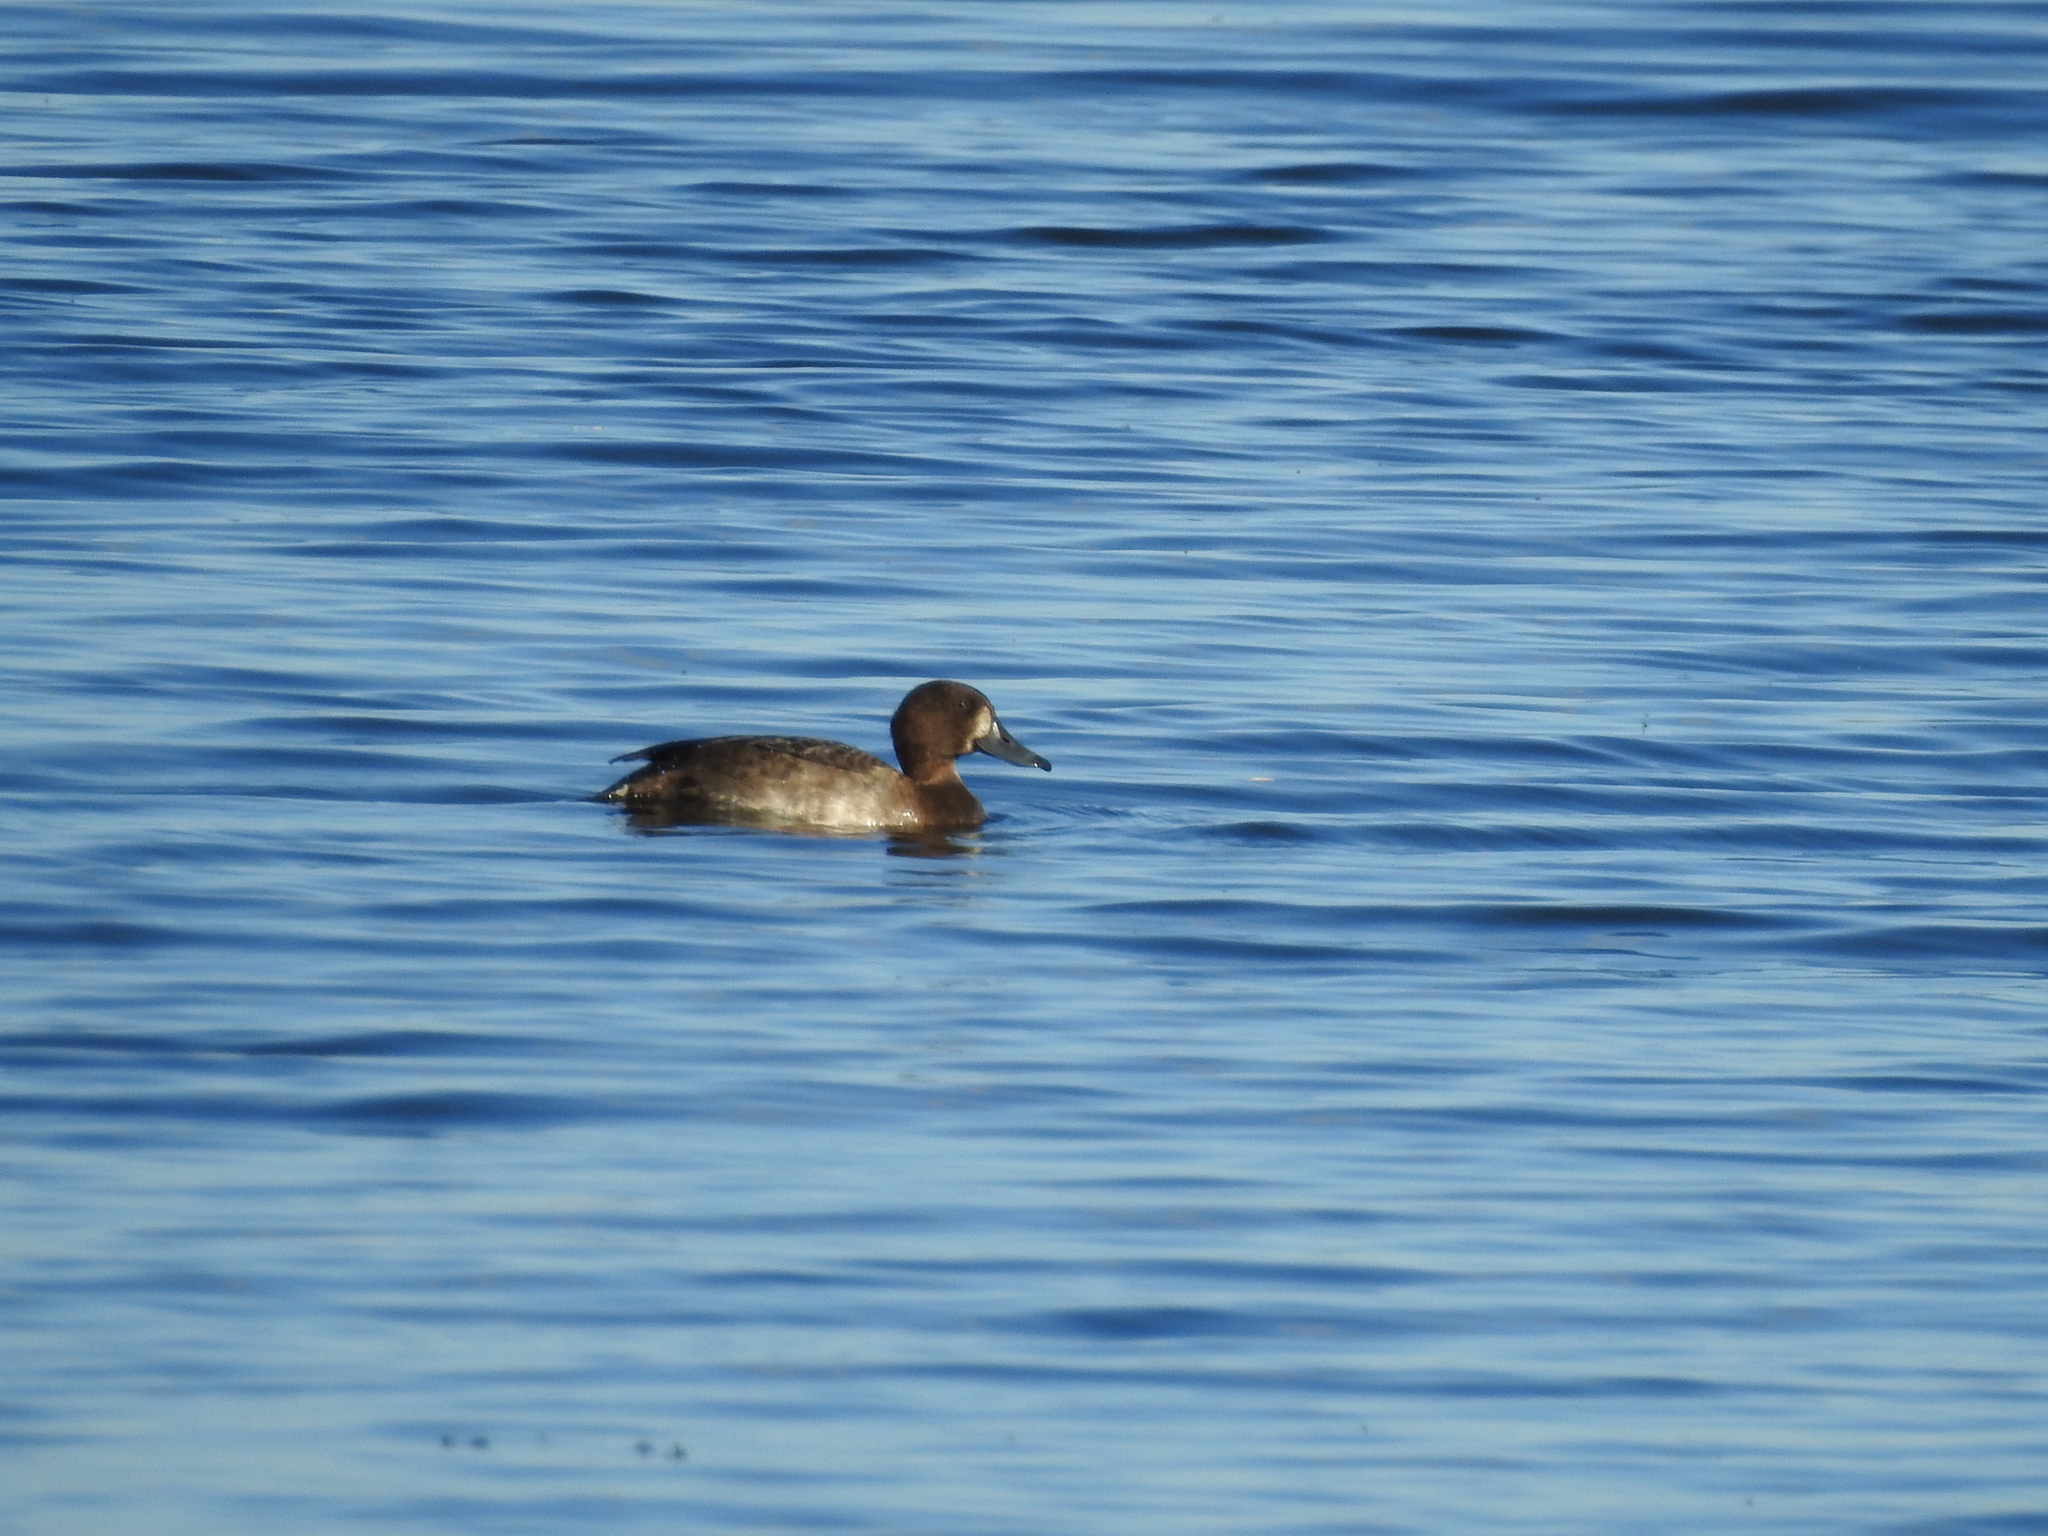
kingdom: Animalia
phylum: Chordata
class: Aves
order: Anseriformes
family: Anatidae
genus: Aythya
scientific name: Aythya fuligula
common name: Tufted duck
